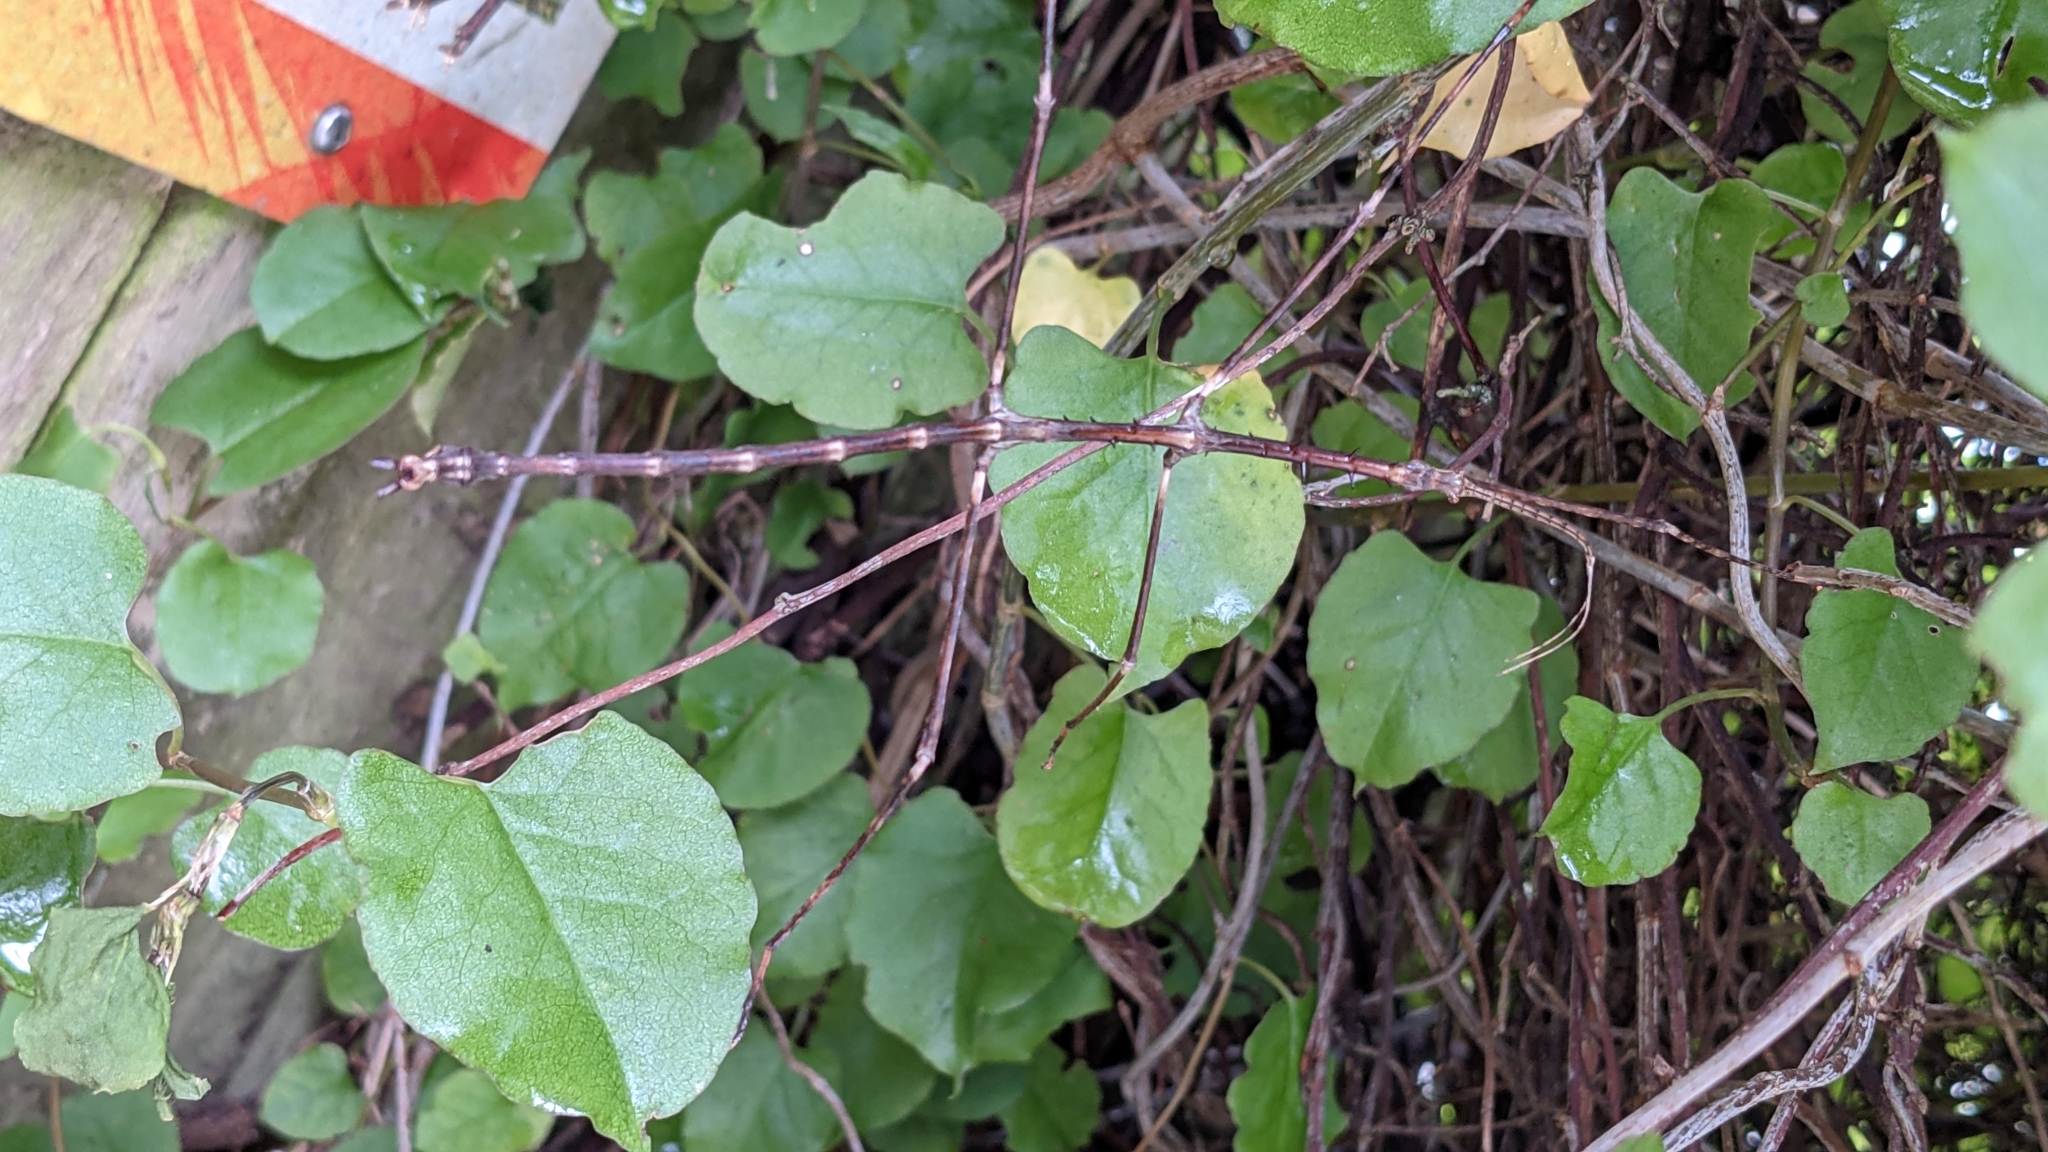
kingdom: Animalia
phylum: Arthropoda
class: Insecta
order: Phasmida
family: Phasmatidae
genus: Argosarchus
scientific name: Argosarchus horridus
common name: Bristly stick insect
